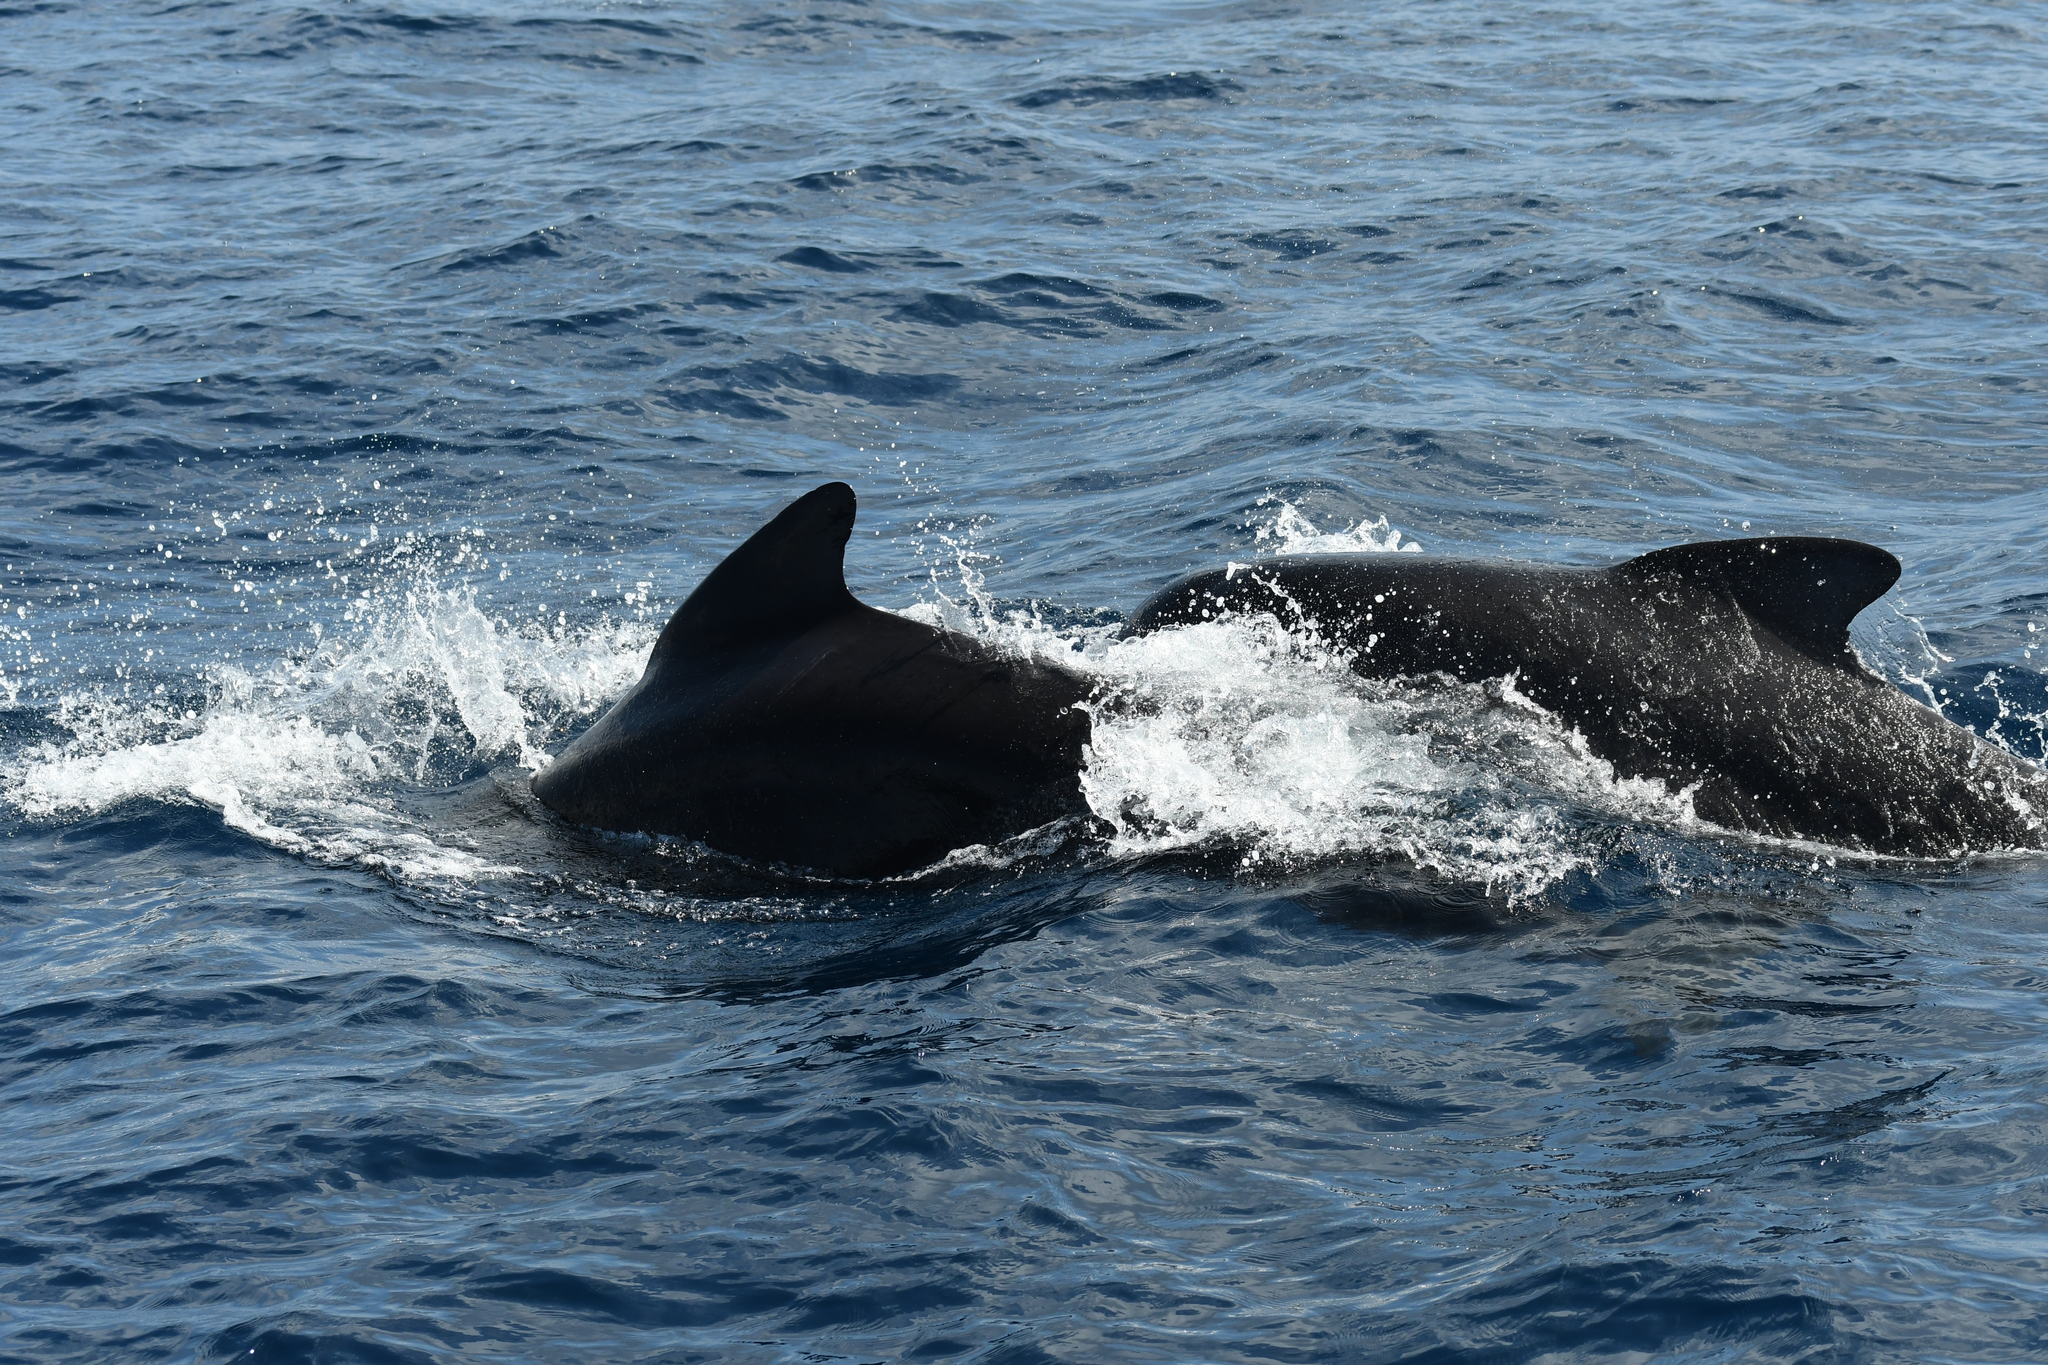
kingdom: Animalia
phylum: Chordata
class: Mammalia
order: Cetacea
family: Delphinidae
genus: Globicephala
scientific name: Globicephala melas
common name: Long-finned pilot whale
